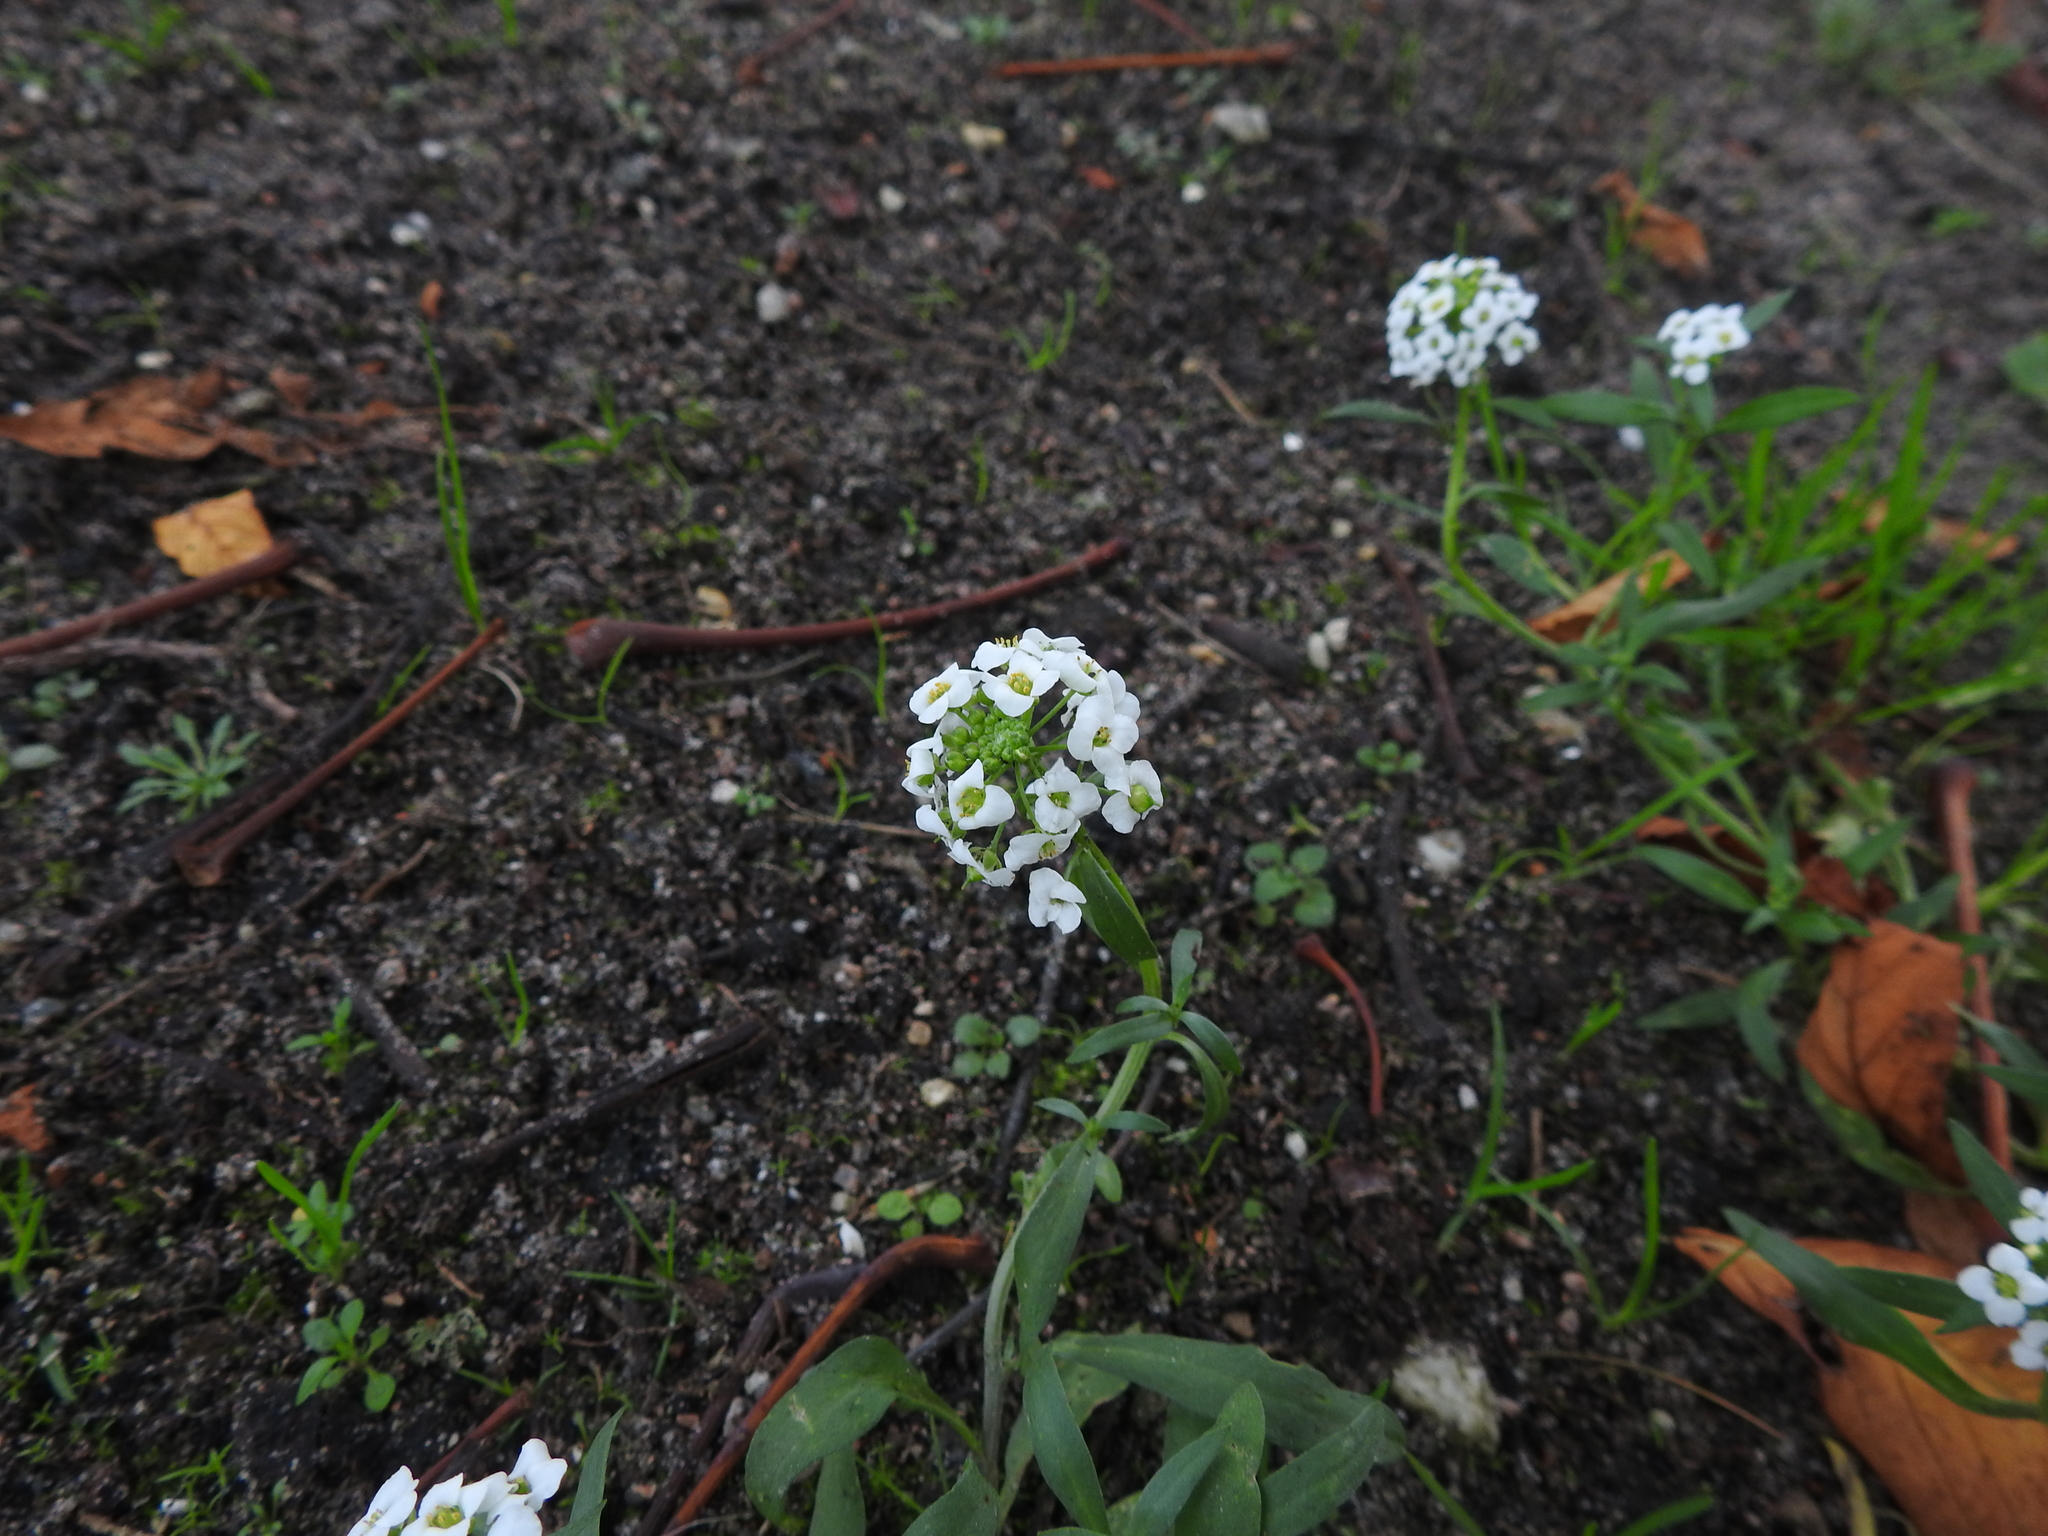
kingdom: Plantae
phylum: Tracheophyta
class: Magnoliopsida
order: Brassicales
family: Brassicaceae
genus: Lobularia
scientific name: Lobularia maritima
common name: Sweet alison
